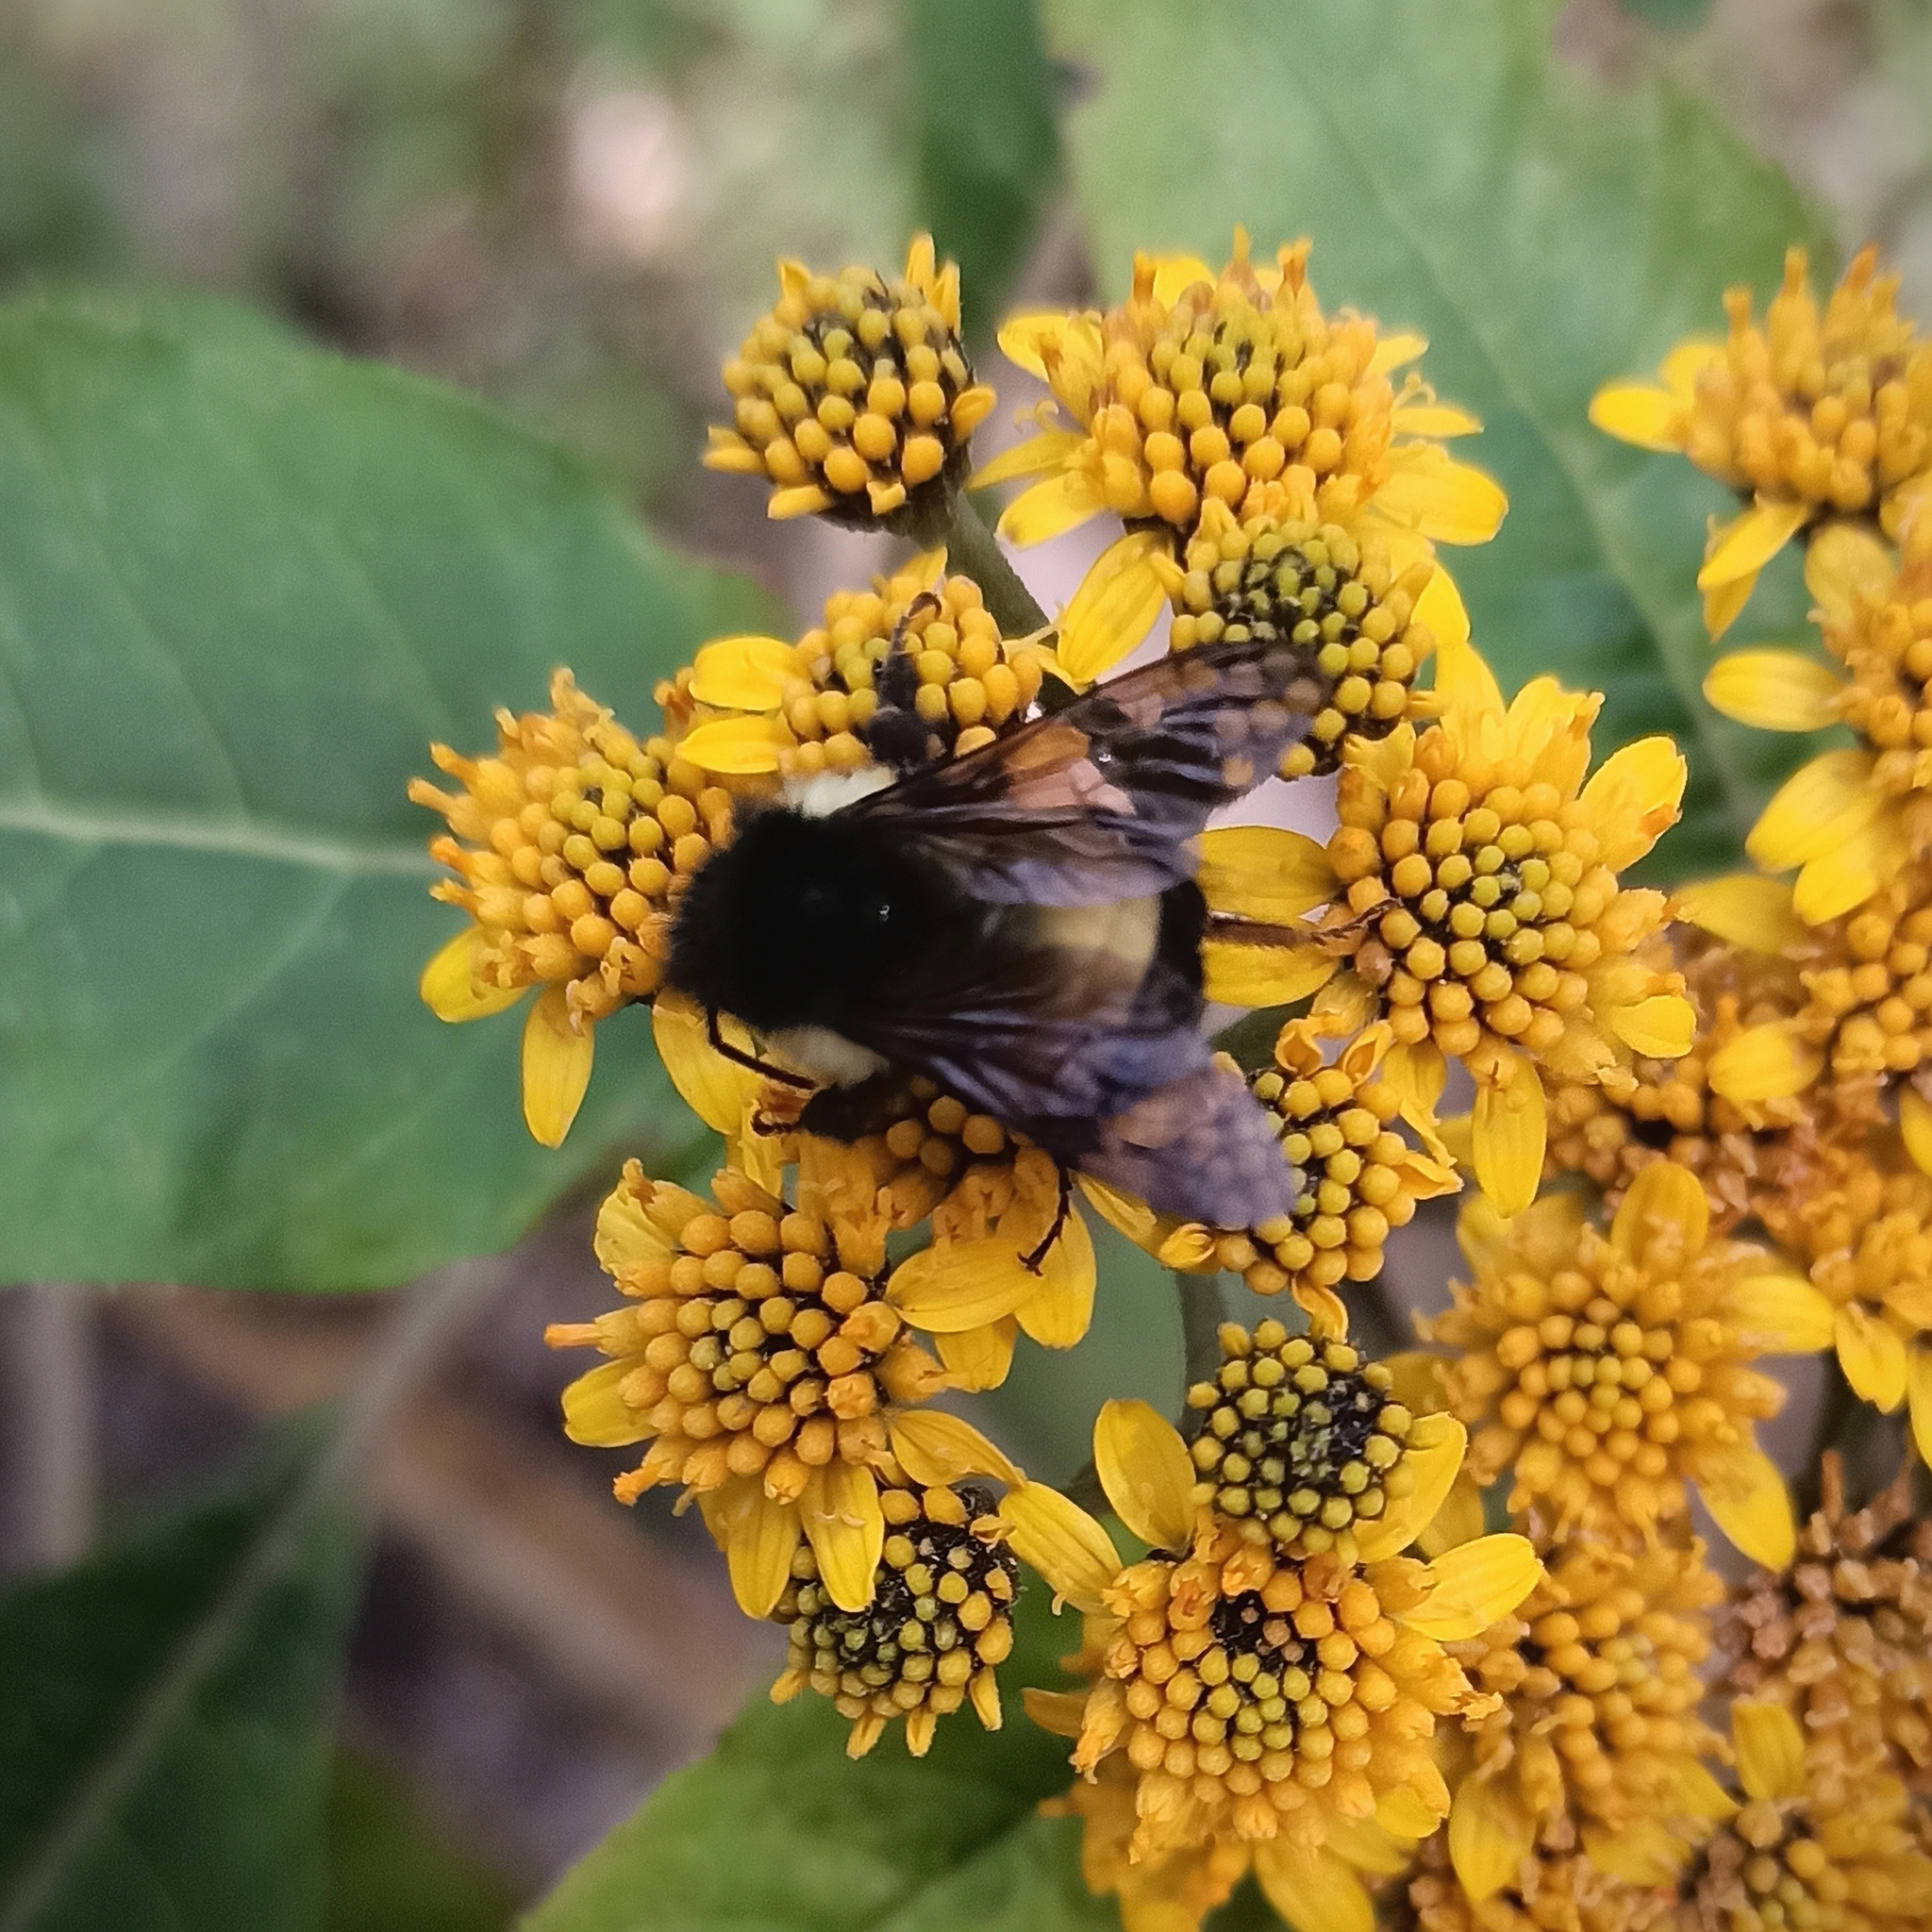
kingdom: Animalia
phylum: Arthropoda
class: Insecta
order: Hymenoptera
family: Apidae
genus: Bombus
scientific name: Bombus ephippiatus
